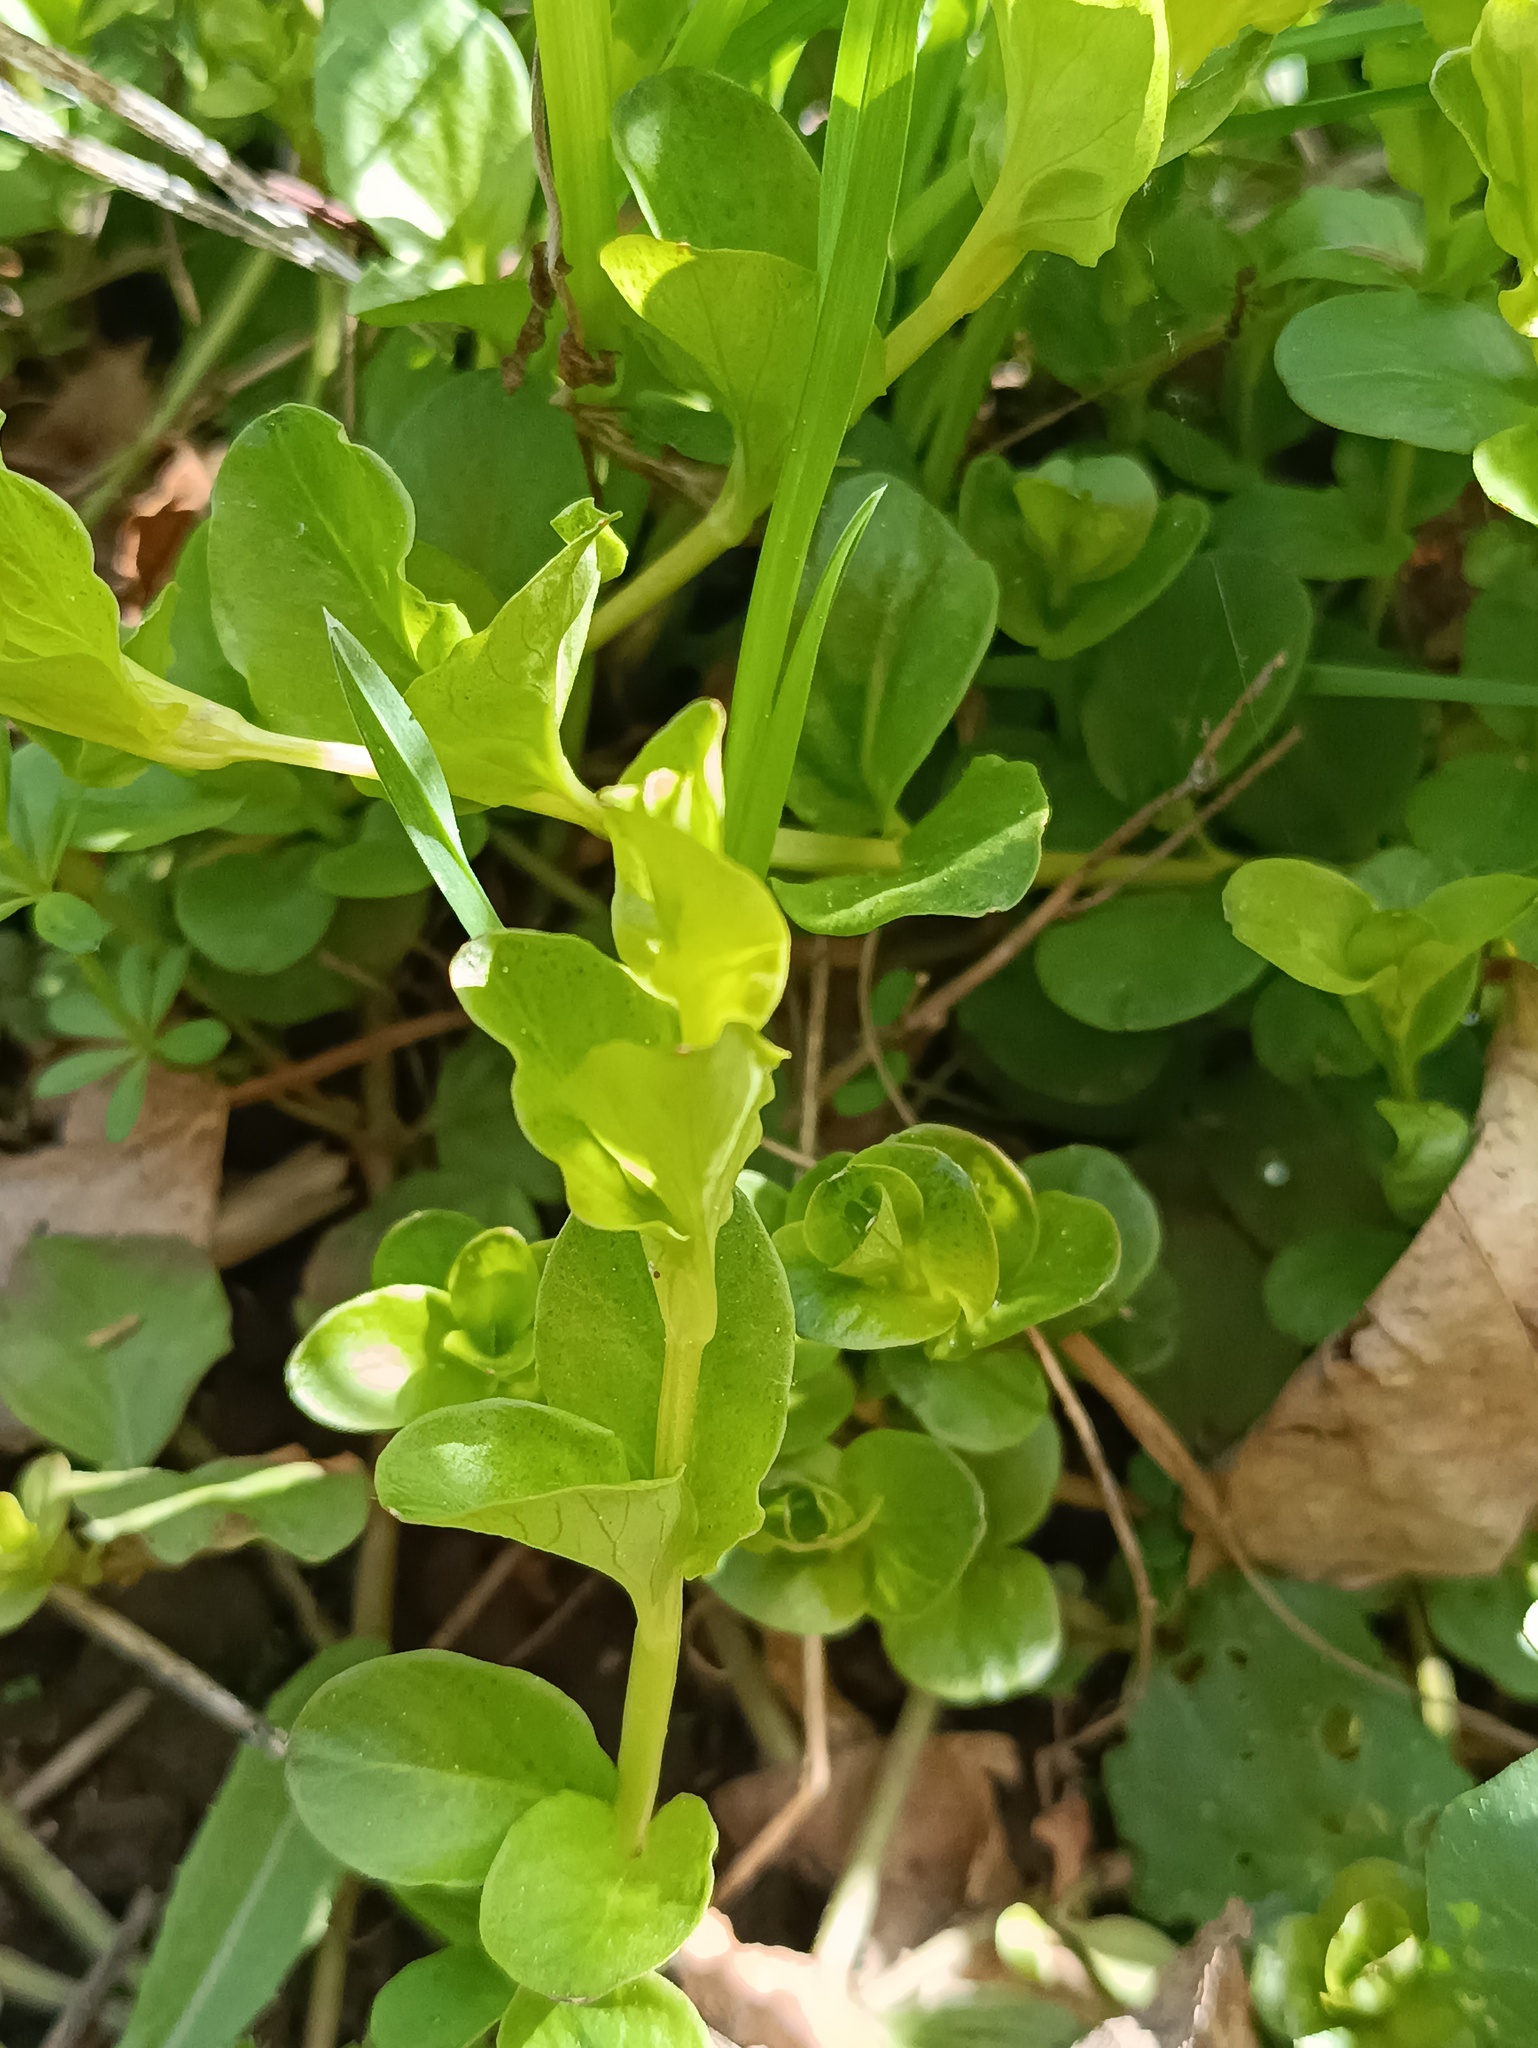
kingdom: Plantae
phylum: Tracheophyta
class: Magnoliopsida
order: Ericales
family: Primulaceae
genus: Lysimachia
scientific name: Lysimachia nummularia
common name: Moneywort
